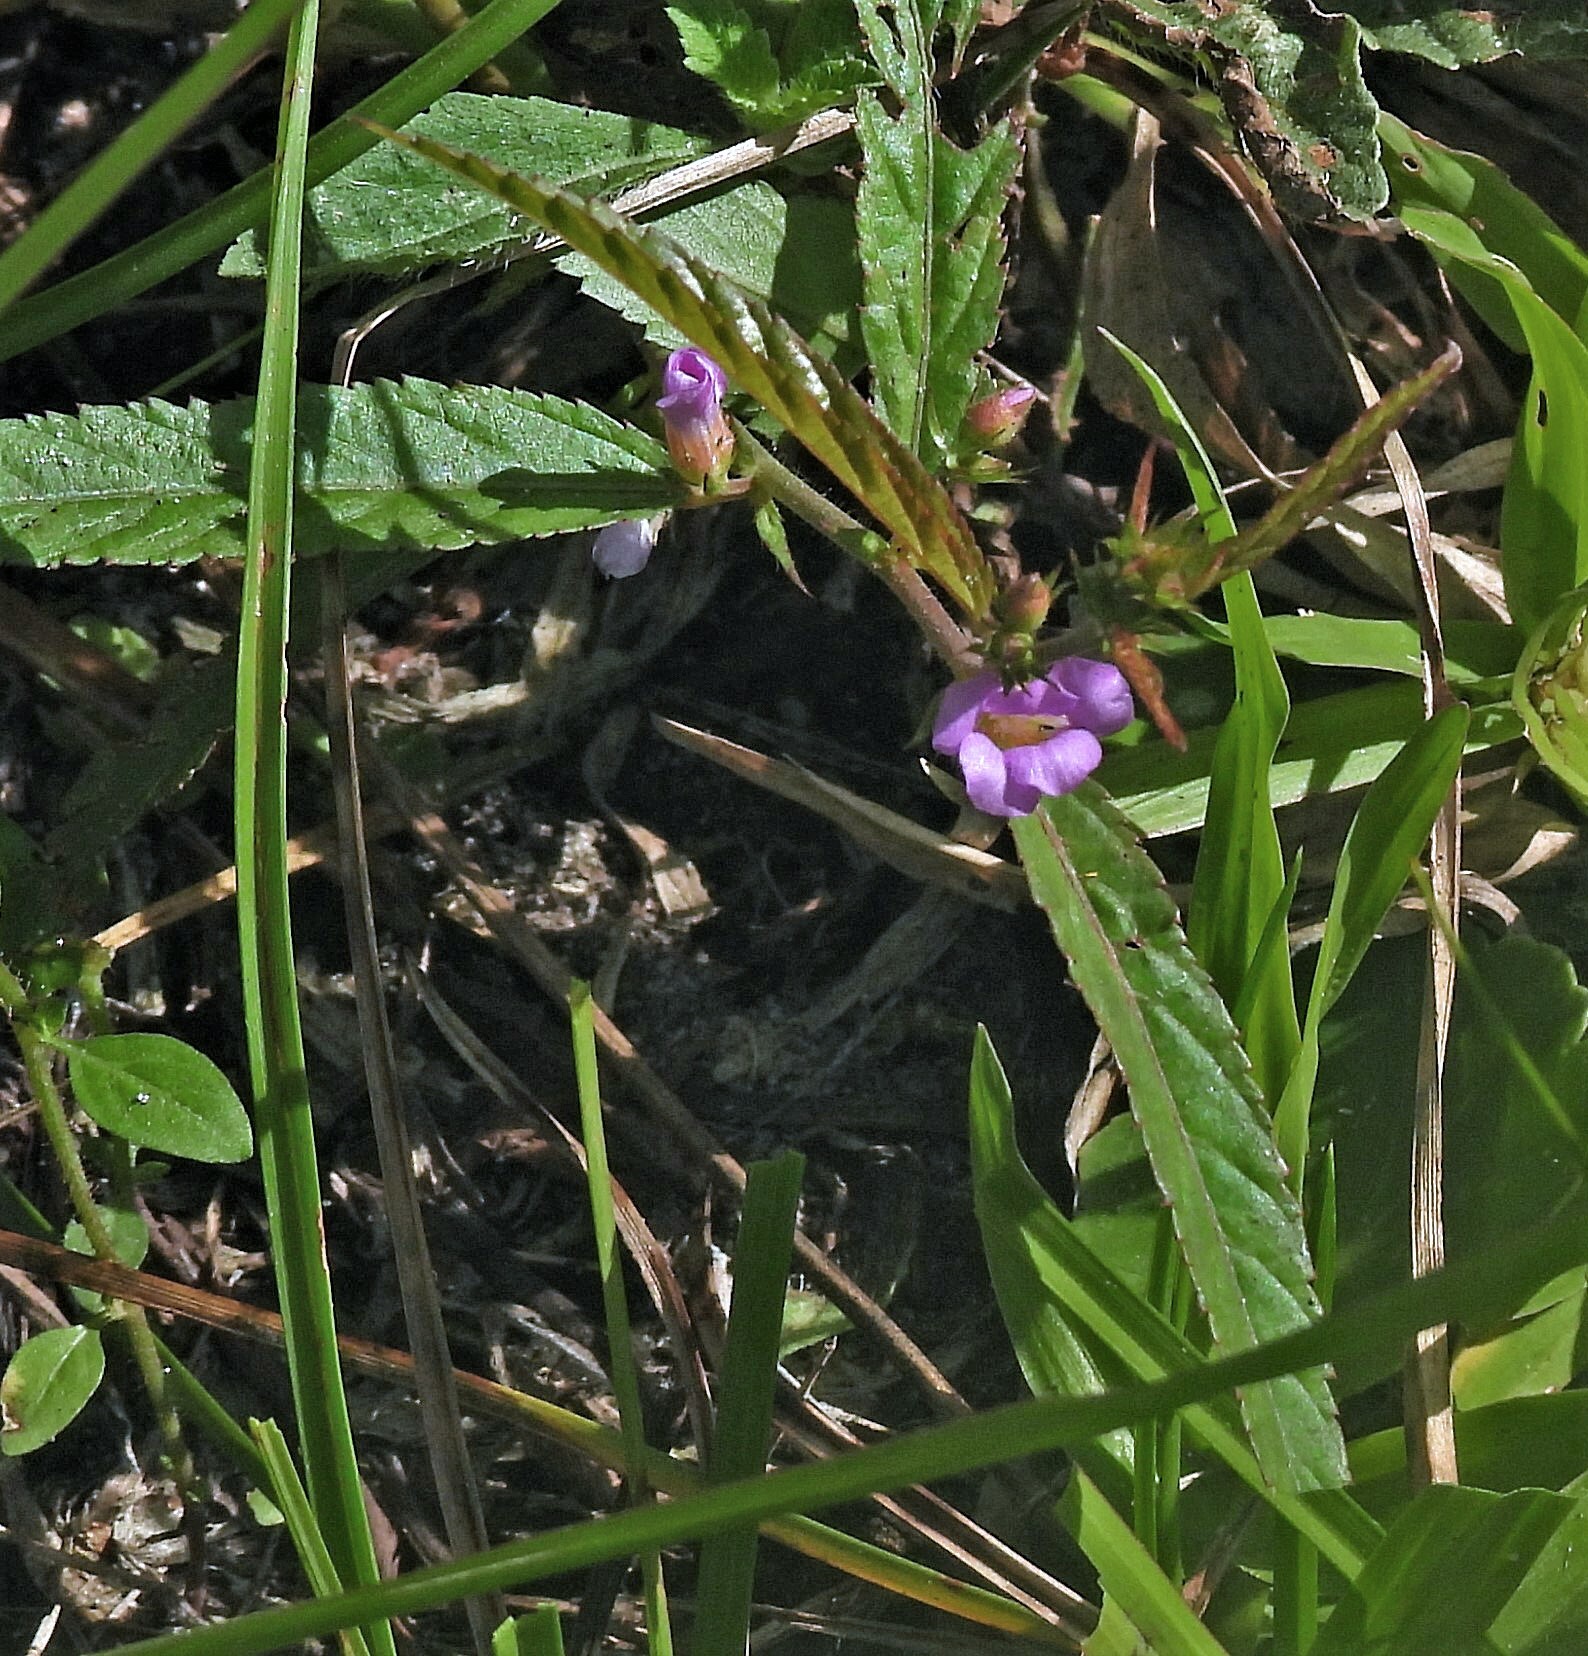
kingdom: Plantae
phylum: Tracheophyta
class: Magnoliopsida
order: Malvales
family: Malvaceae
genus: Melochia
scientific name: Melochia pyramidata
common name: Pyramidflower
